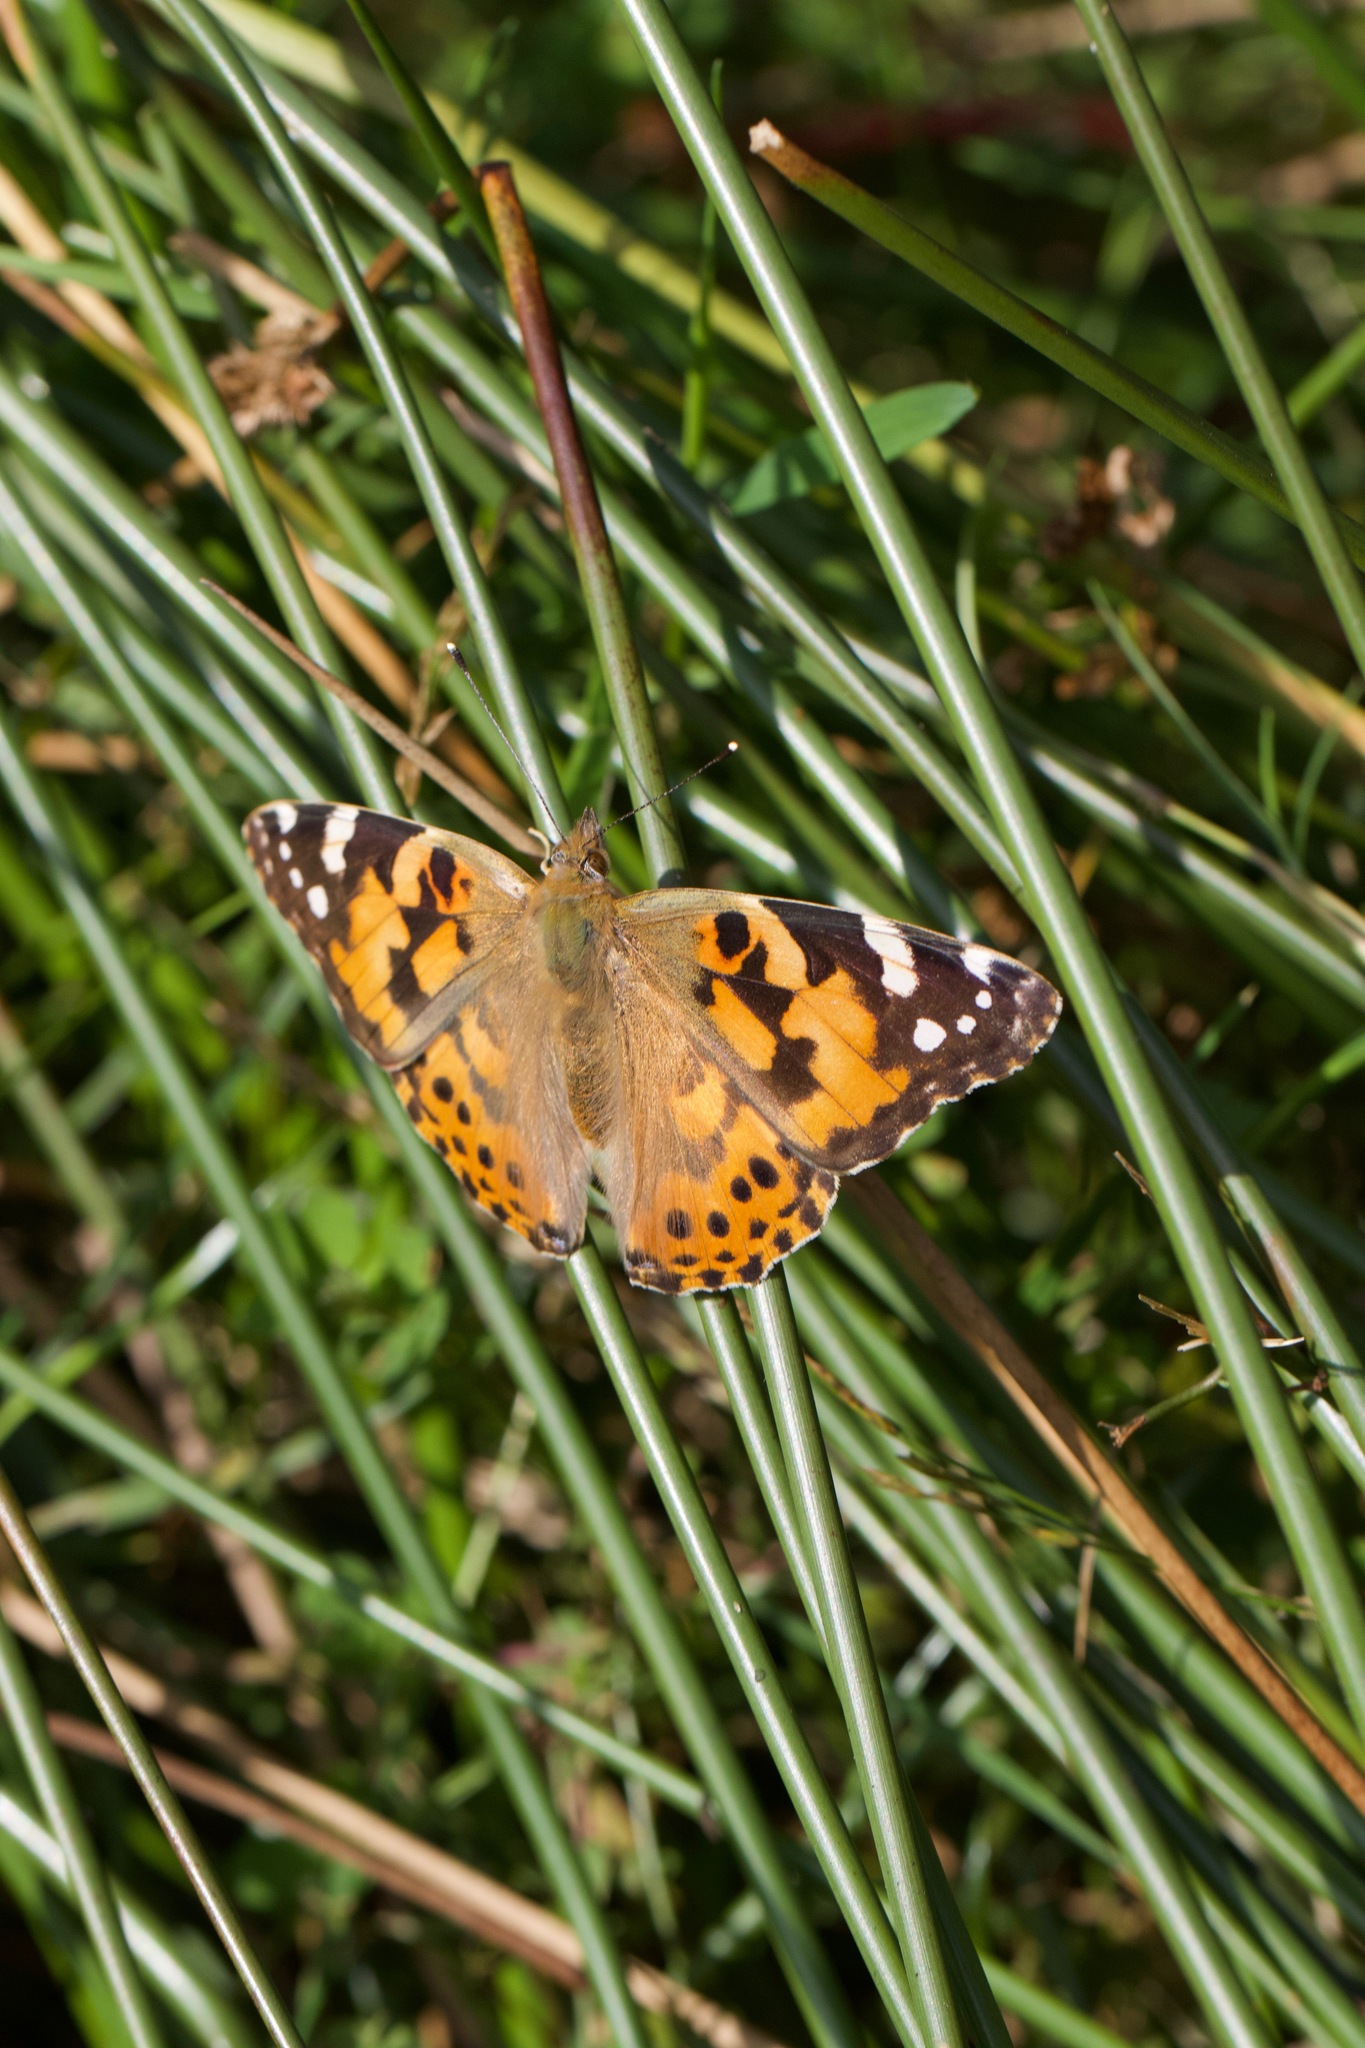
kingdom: Animalia
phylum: Arthropoda
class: Insecta
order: Lepidoptera
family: Nymphalidae
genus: Vanessa
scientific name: Vanessa cardui
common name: Painted lady
